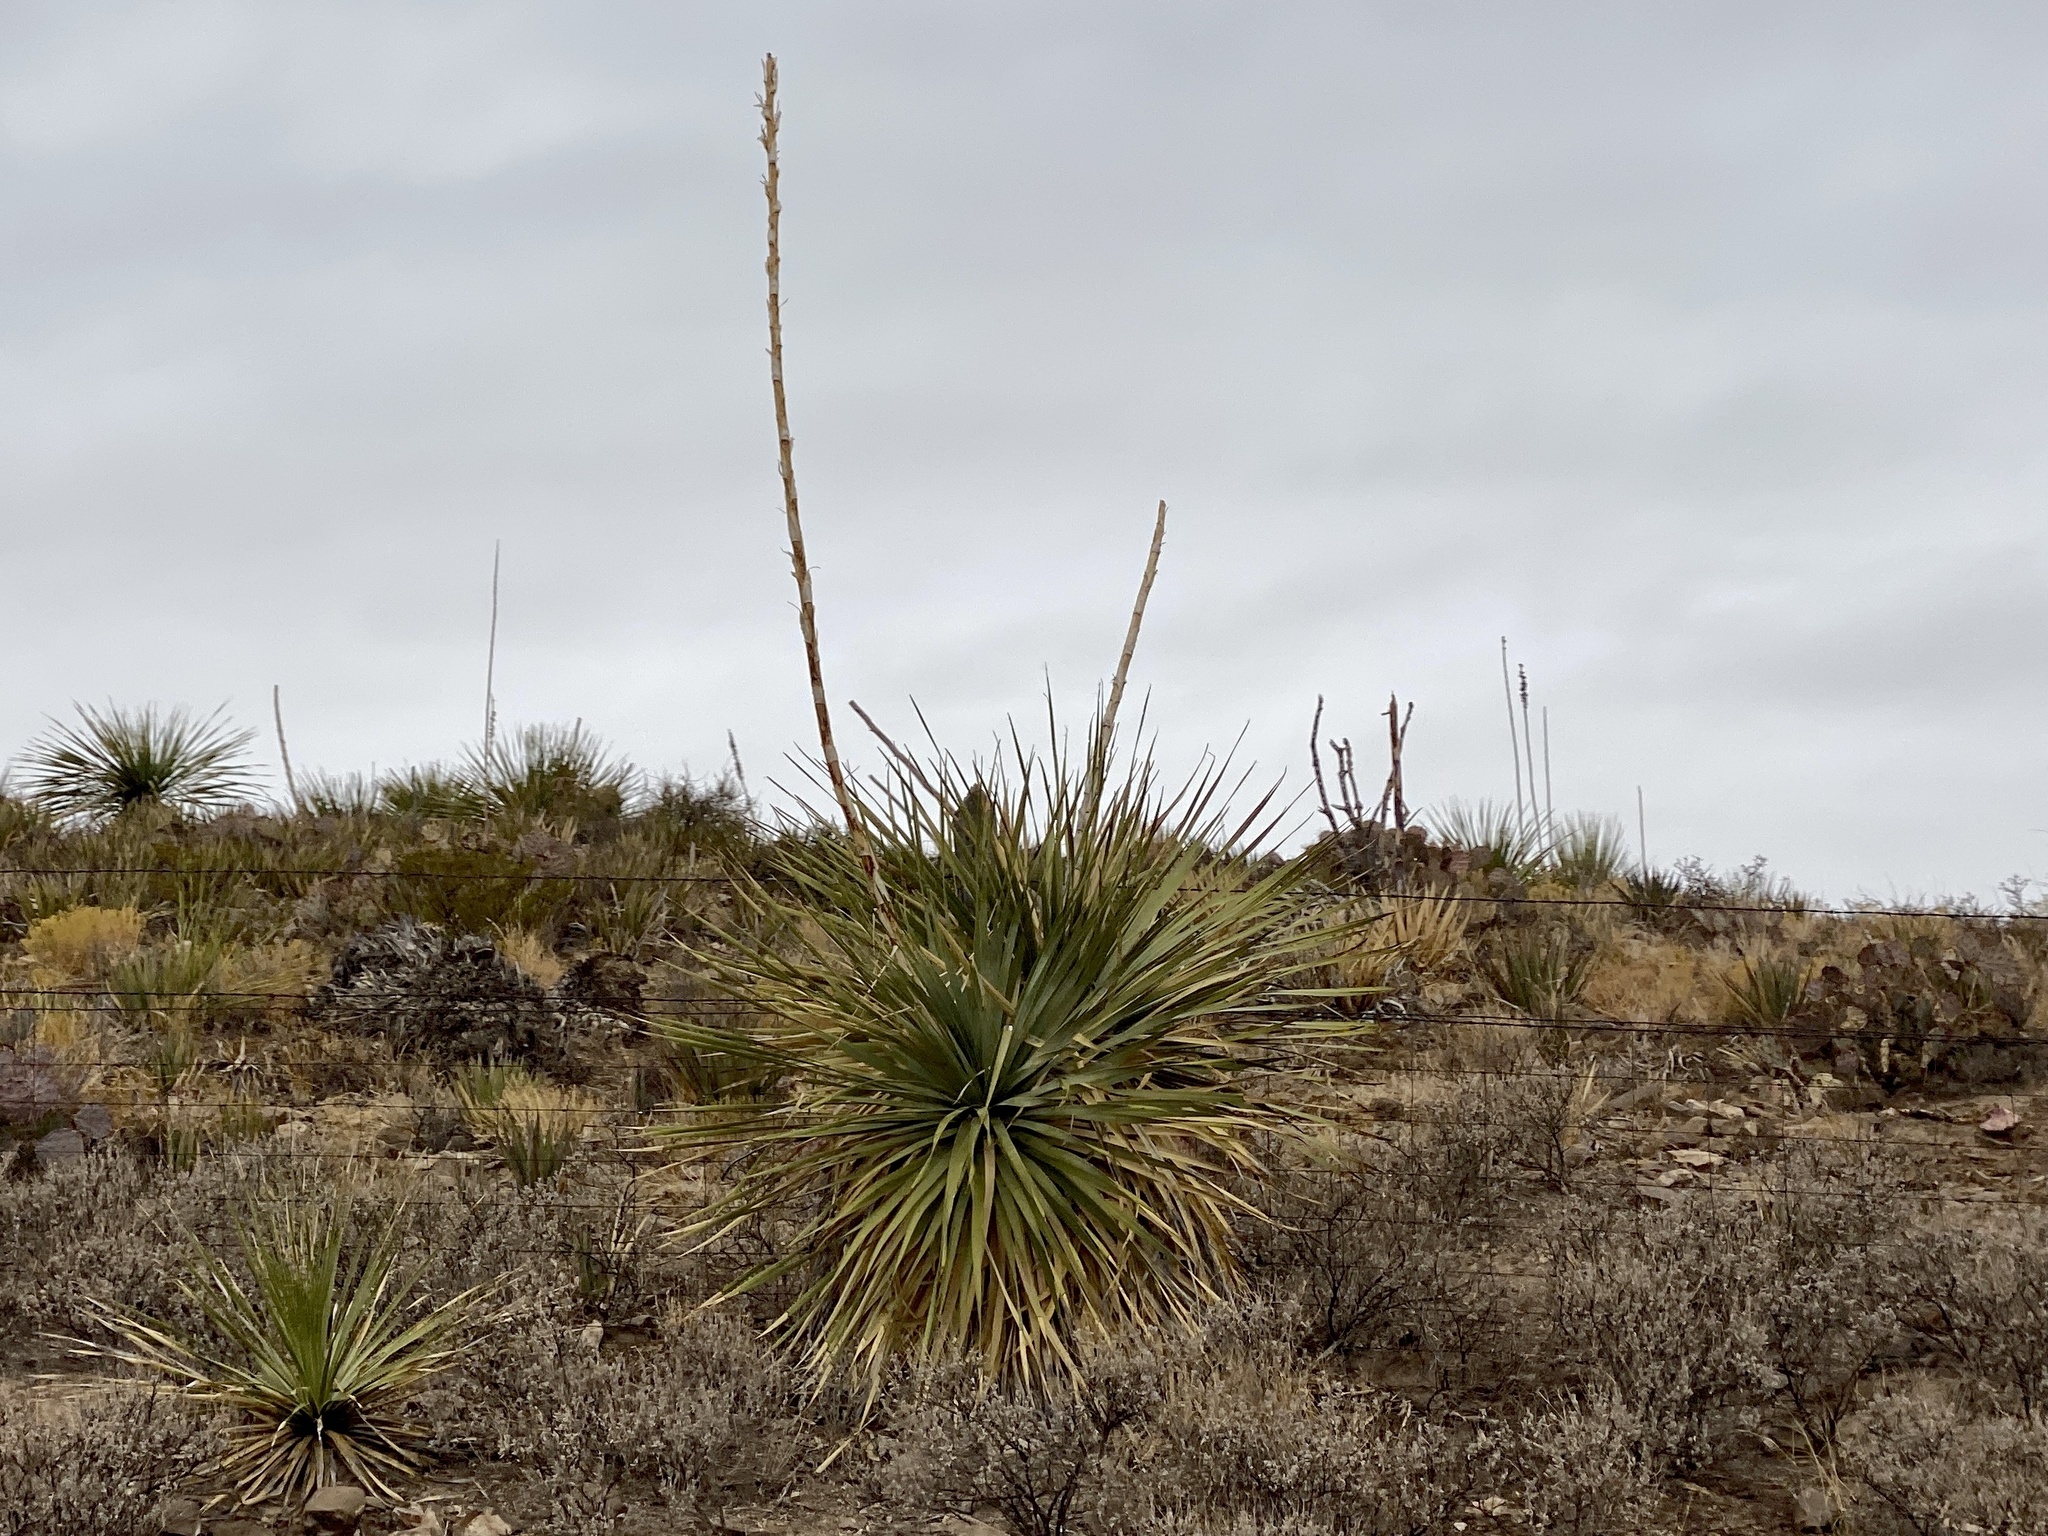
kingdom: Plantae
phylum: Tracheophyta
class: Liliopsida
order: Asparagales
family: Asparagaceae
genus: Dasylirion
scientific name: Dasylirion wheeleri
